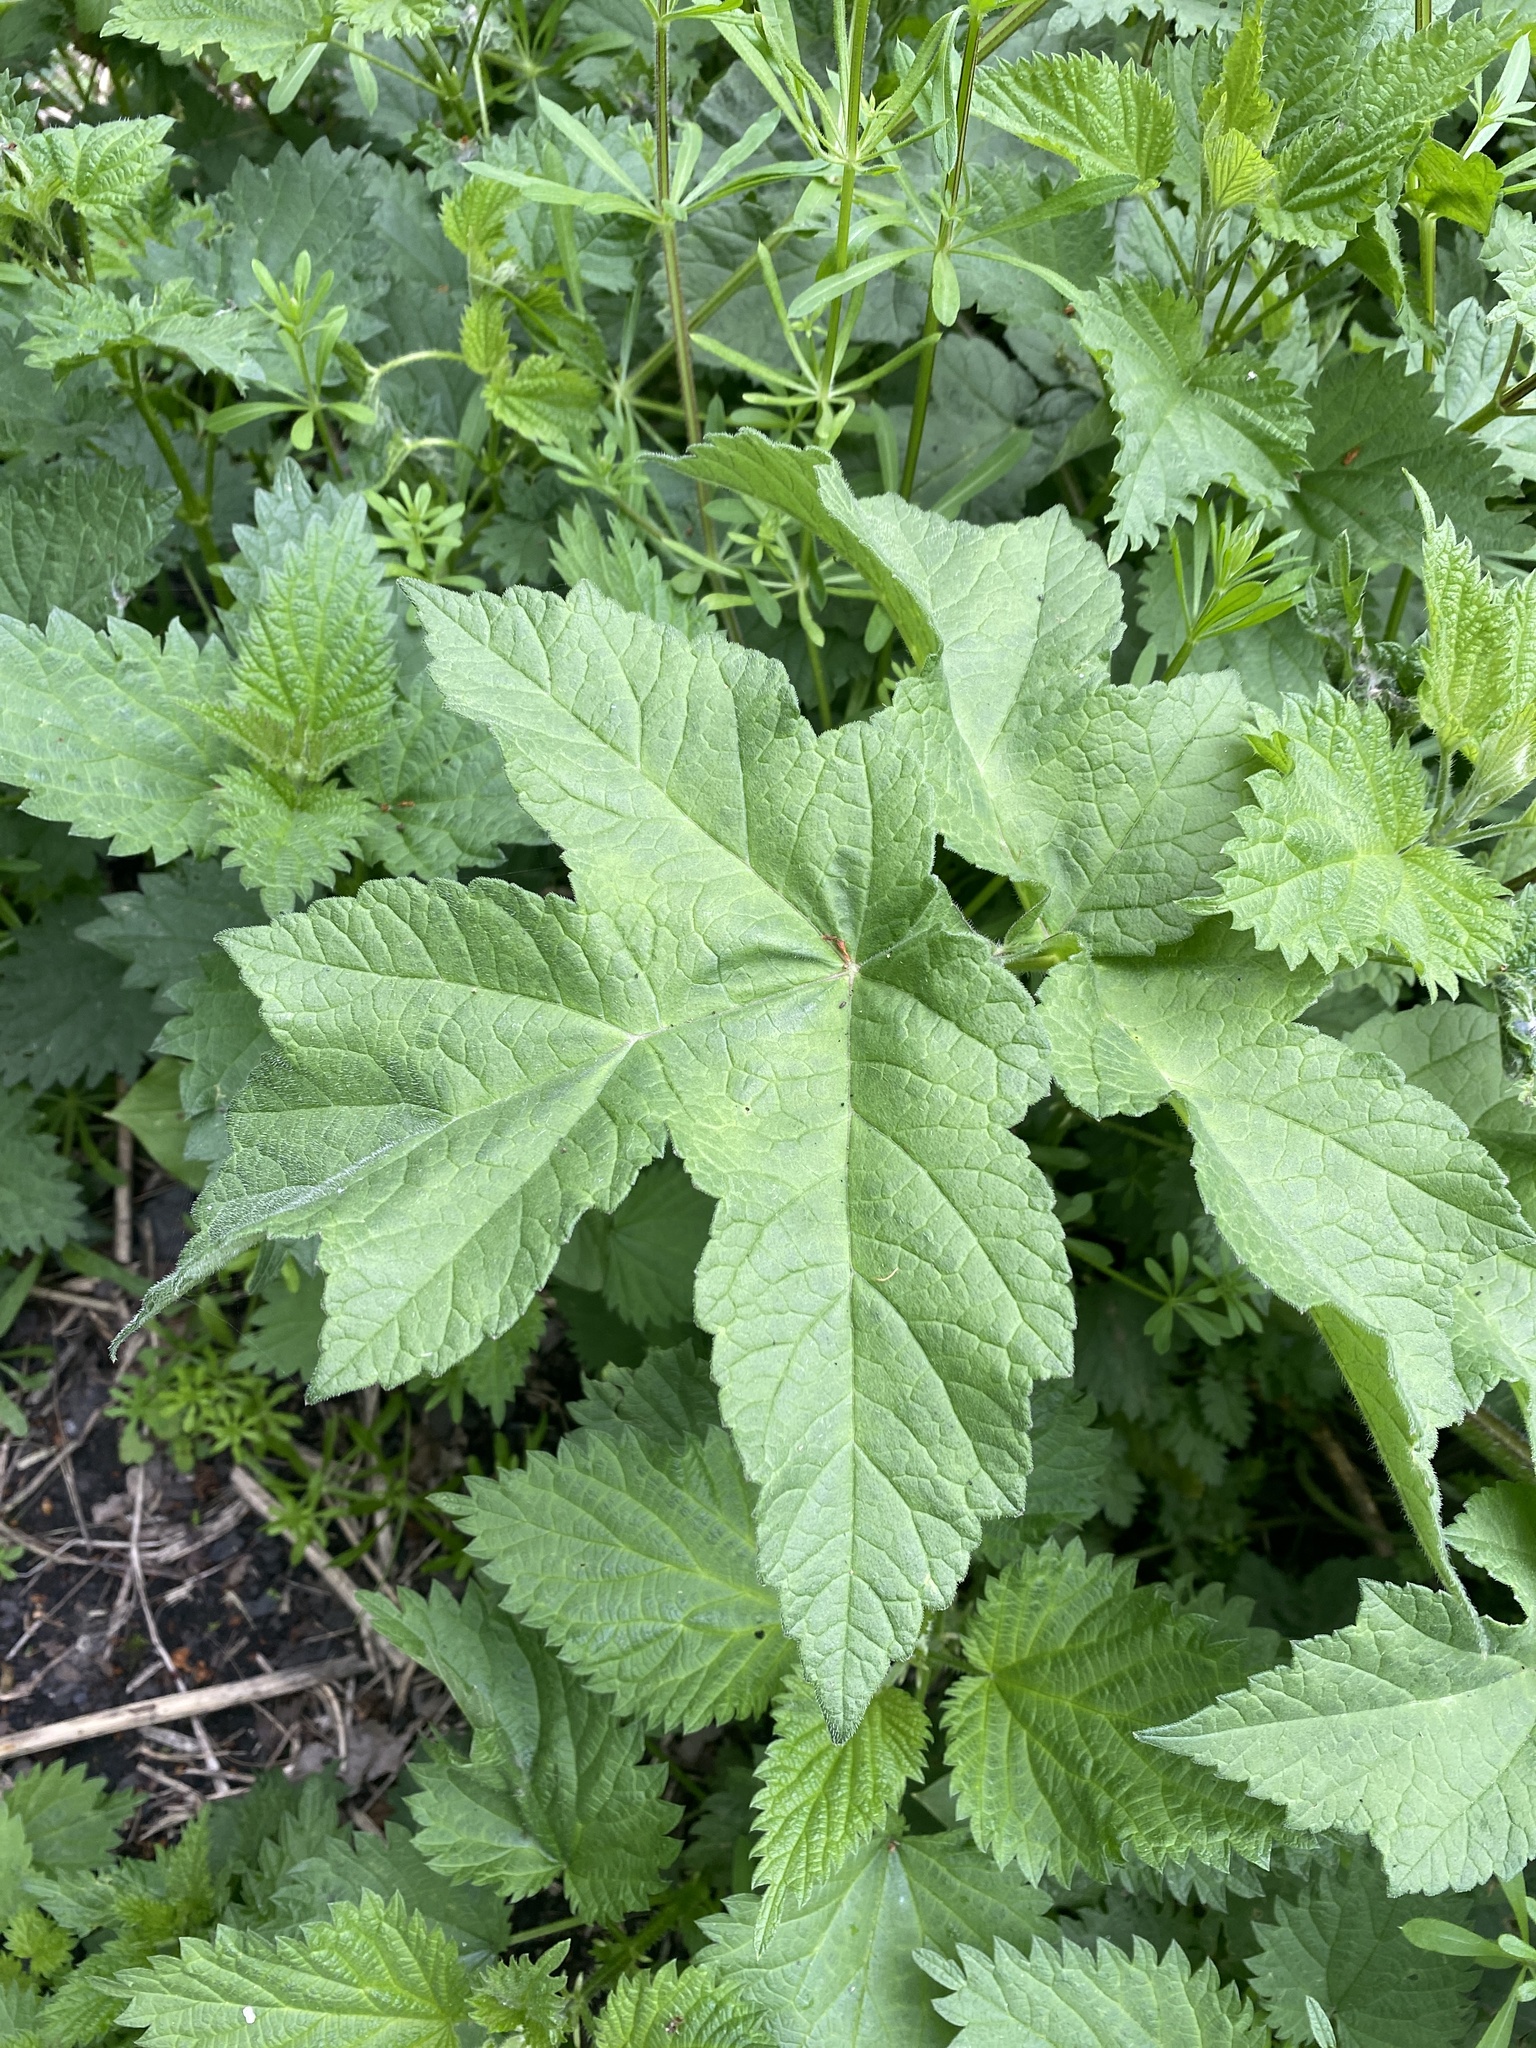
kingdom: Plantae
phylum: Tracheophyta
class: Magnoliopsida
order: Apiales
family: Apiaceae
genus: Heracleum
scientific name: Heracleum sphondylium
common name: Hogweed
